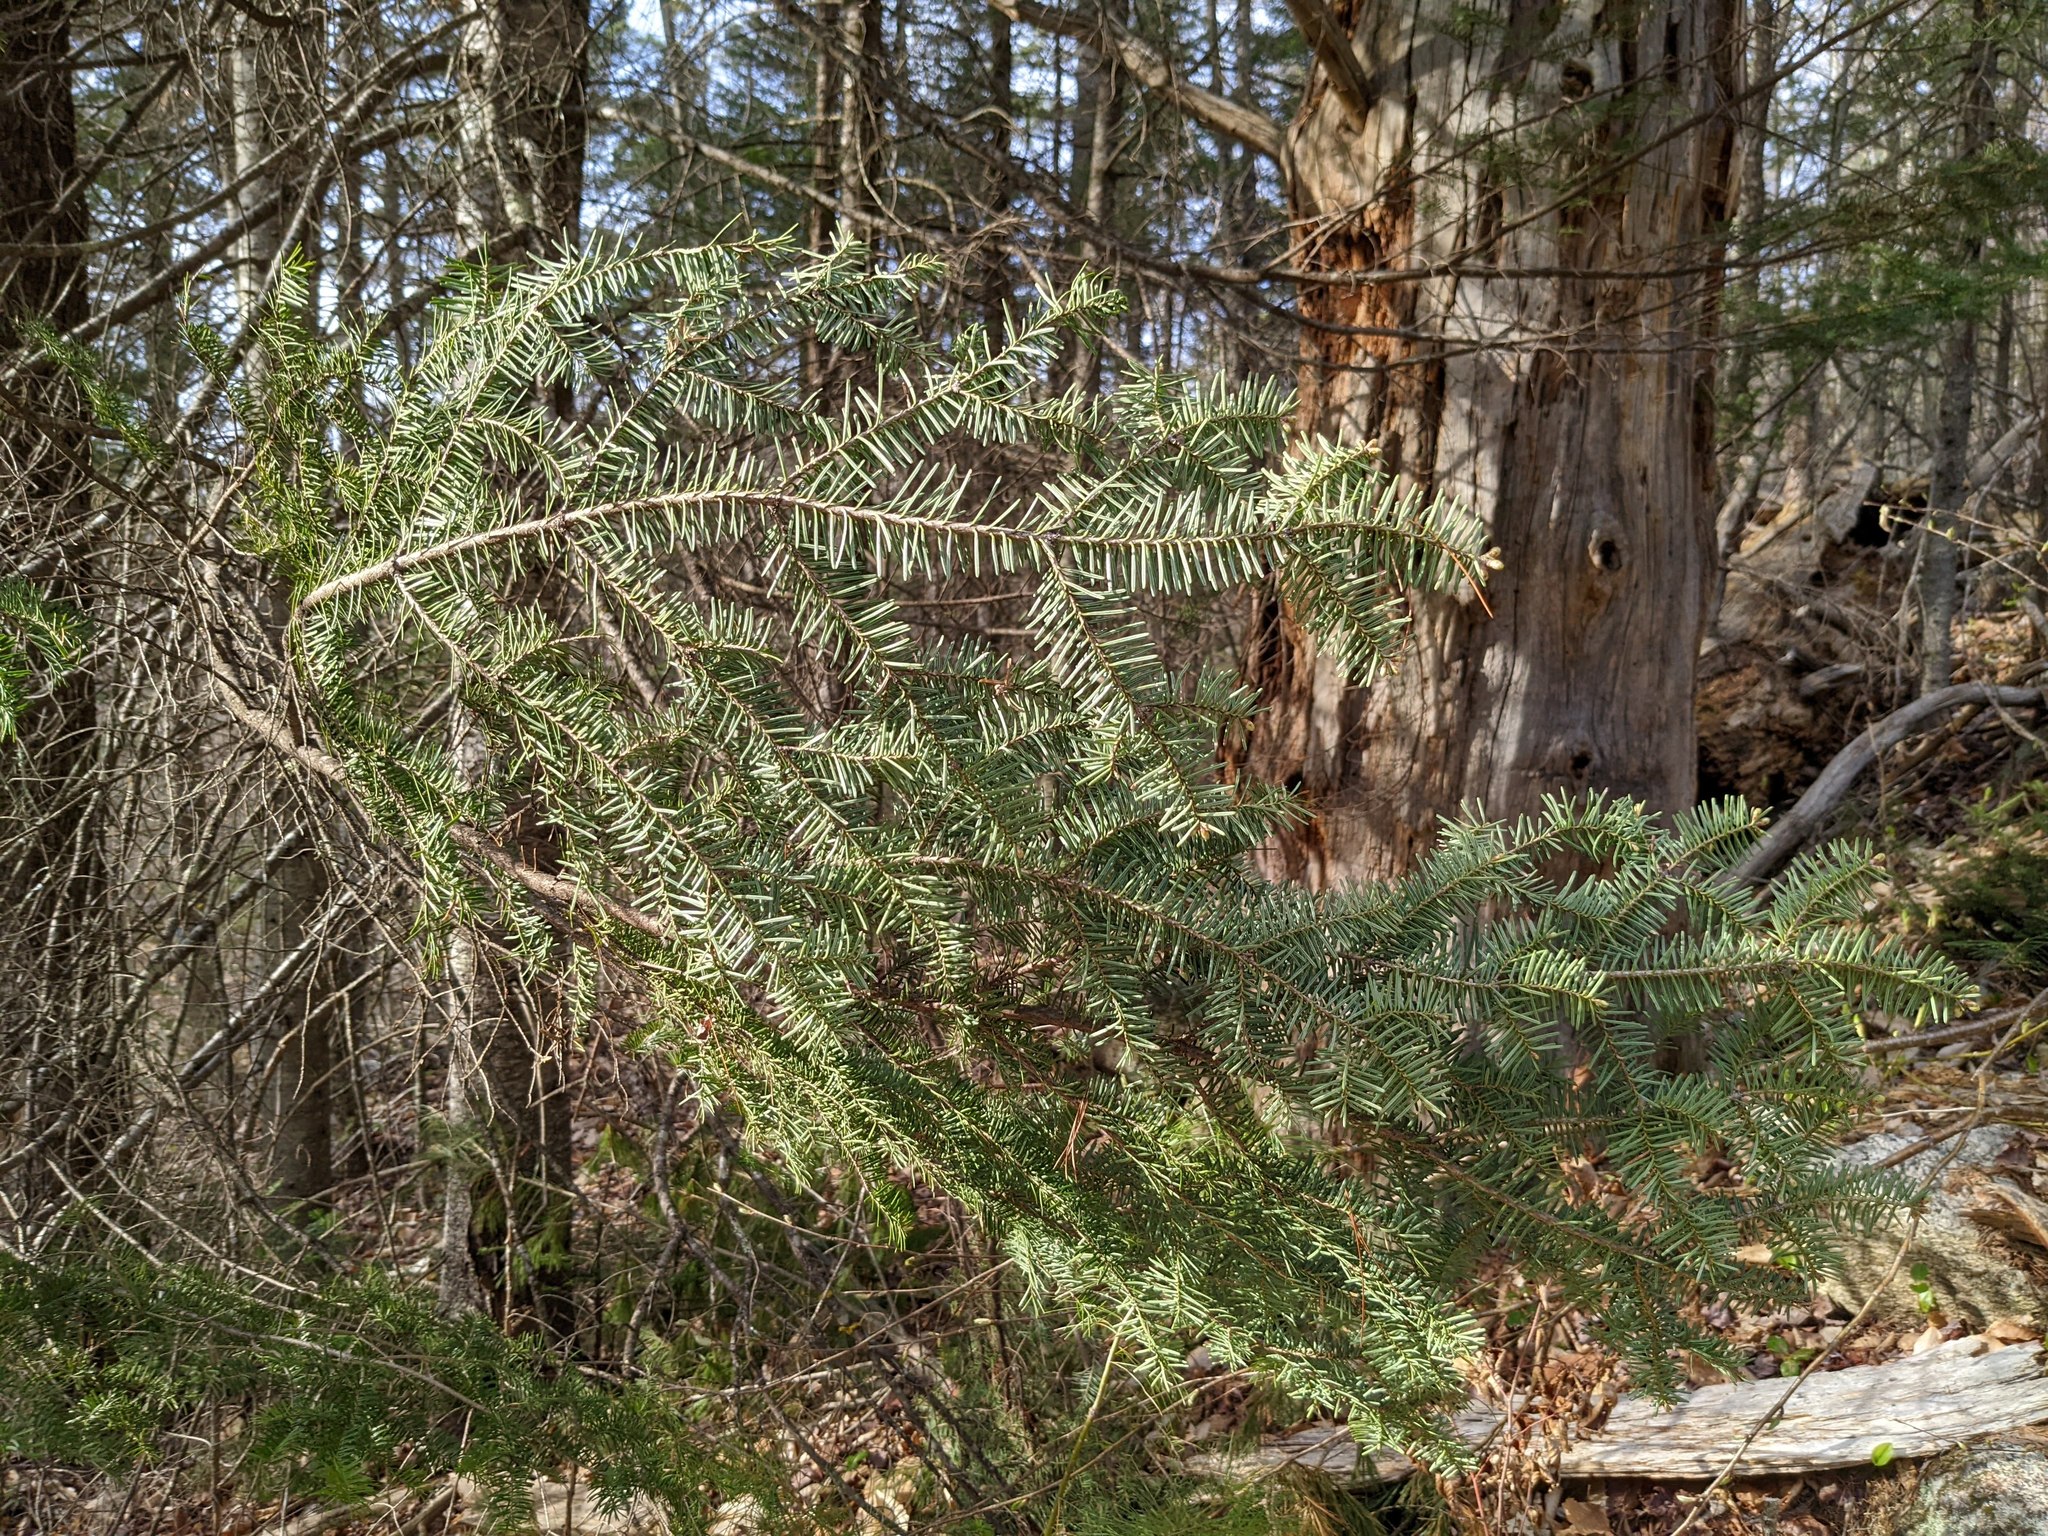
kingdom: Plantae
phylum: Tracheophyta
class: Pinopsida
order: Pinales
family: Pinaceae
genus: Abies
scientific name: Abies balsamea
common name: Balsam fir
